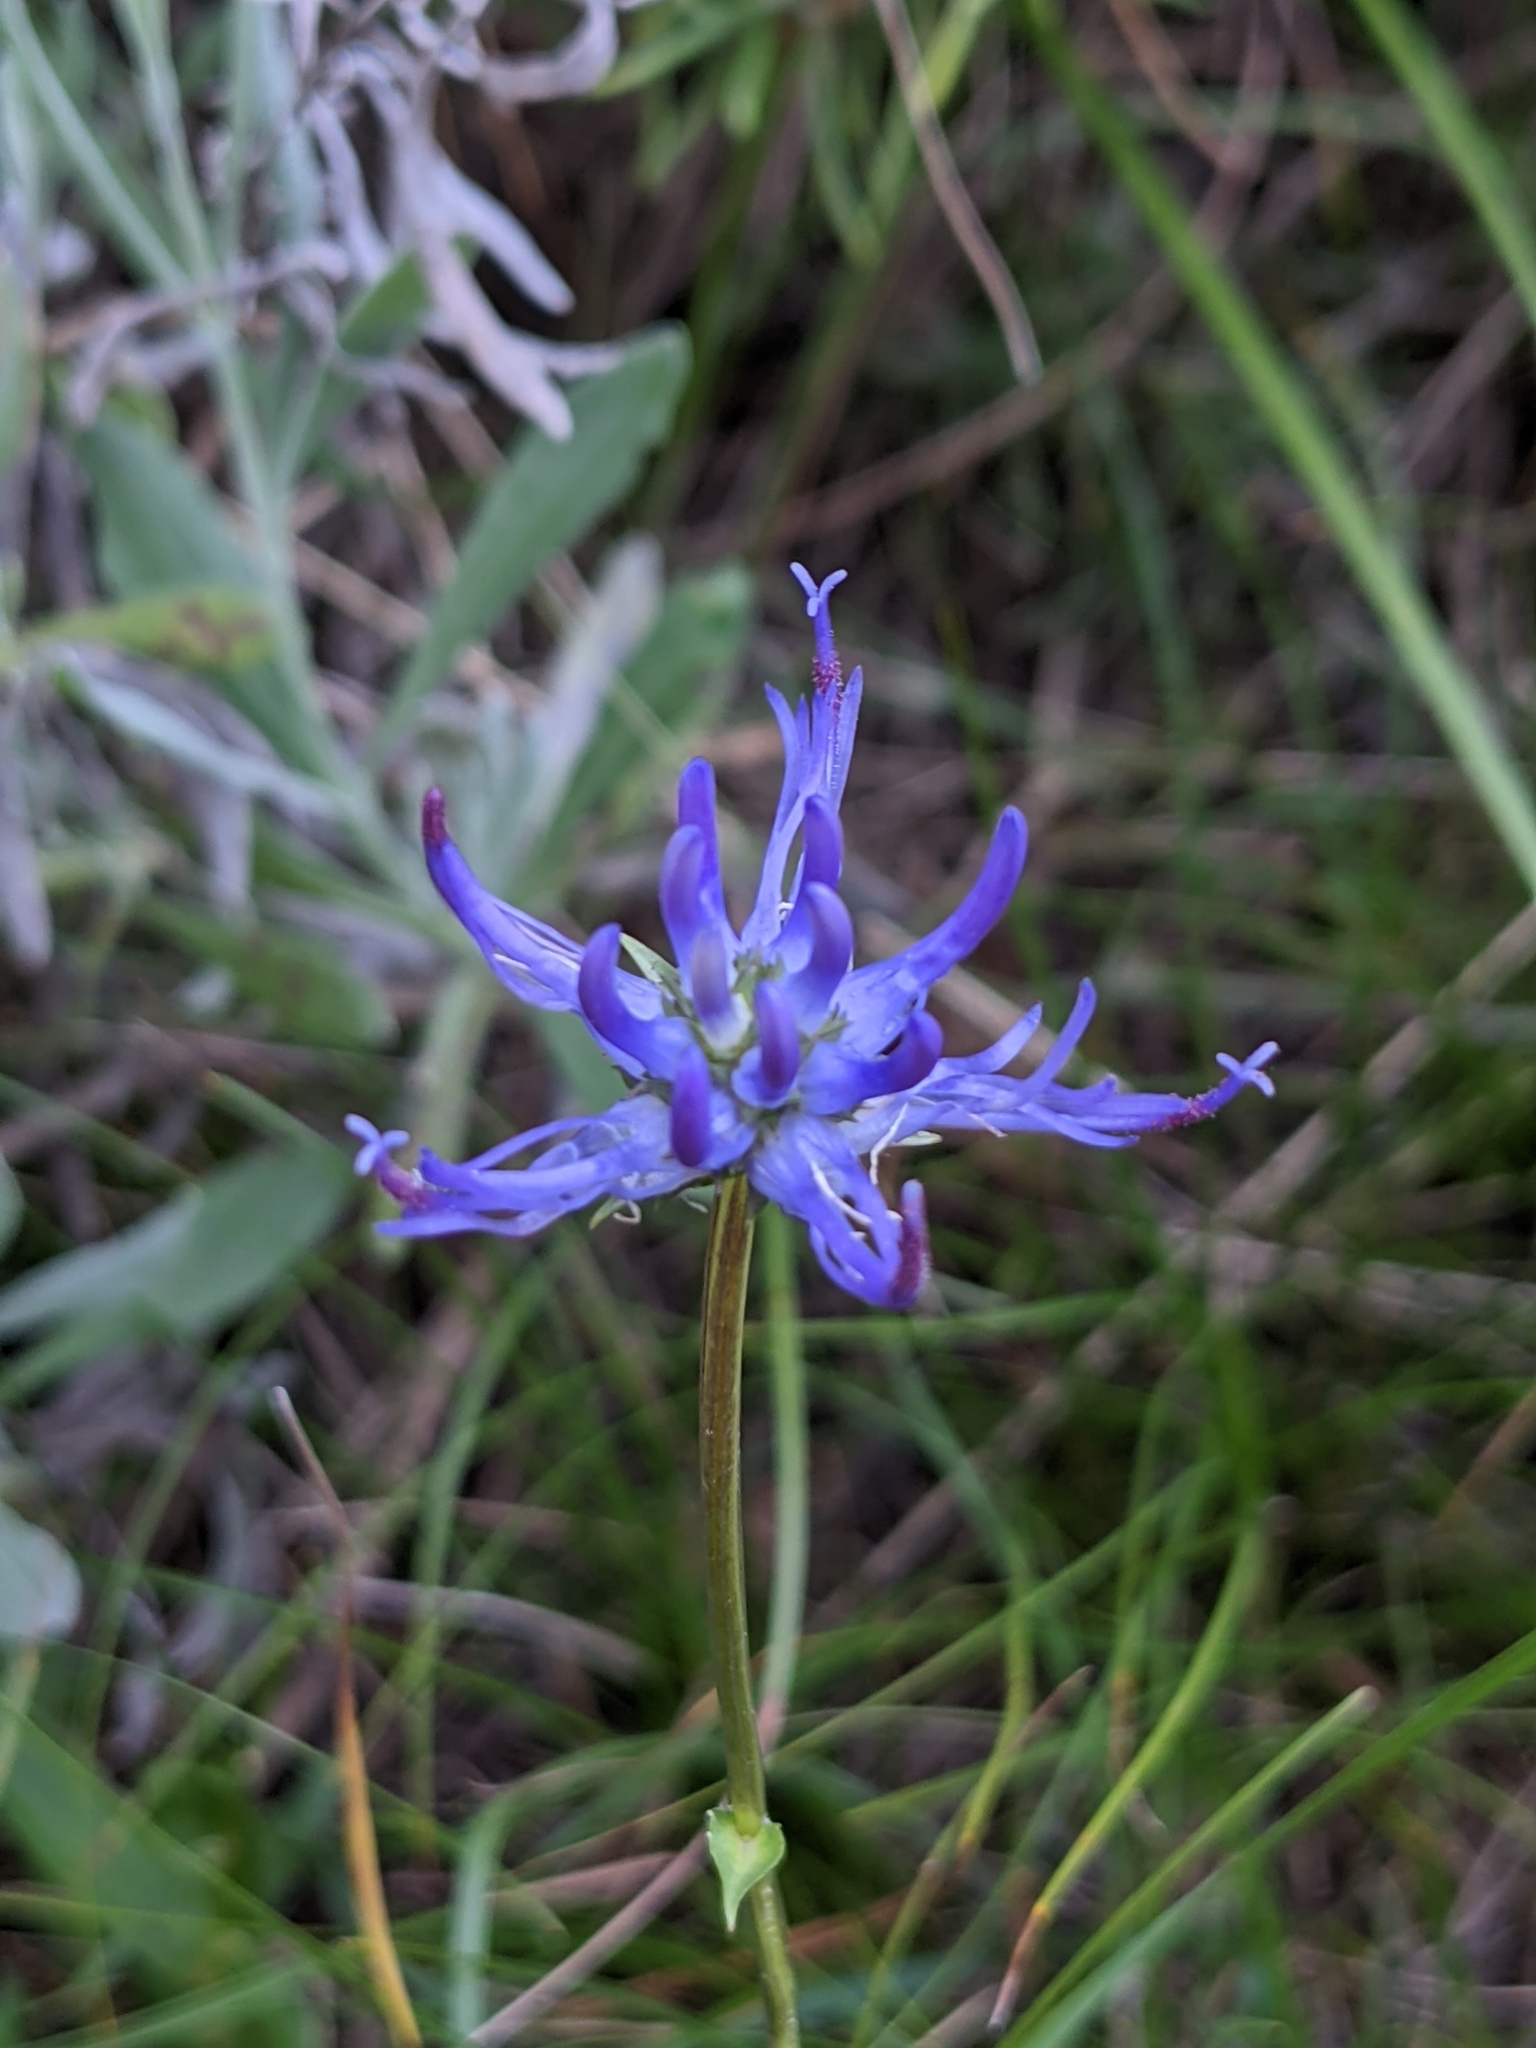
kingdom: Plantae
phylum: Tracheophyta
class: Magnoliopsida
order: Asterales
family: Campanulaceae
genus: Phyteuma
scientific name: Phyteuma orbiculare
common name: Round-headed rampion
